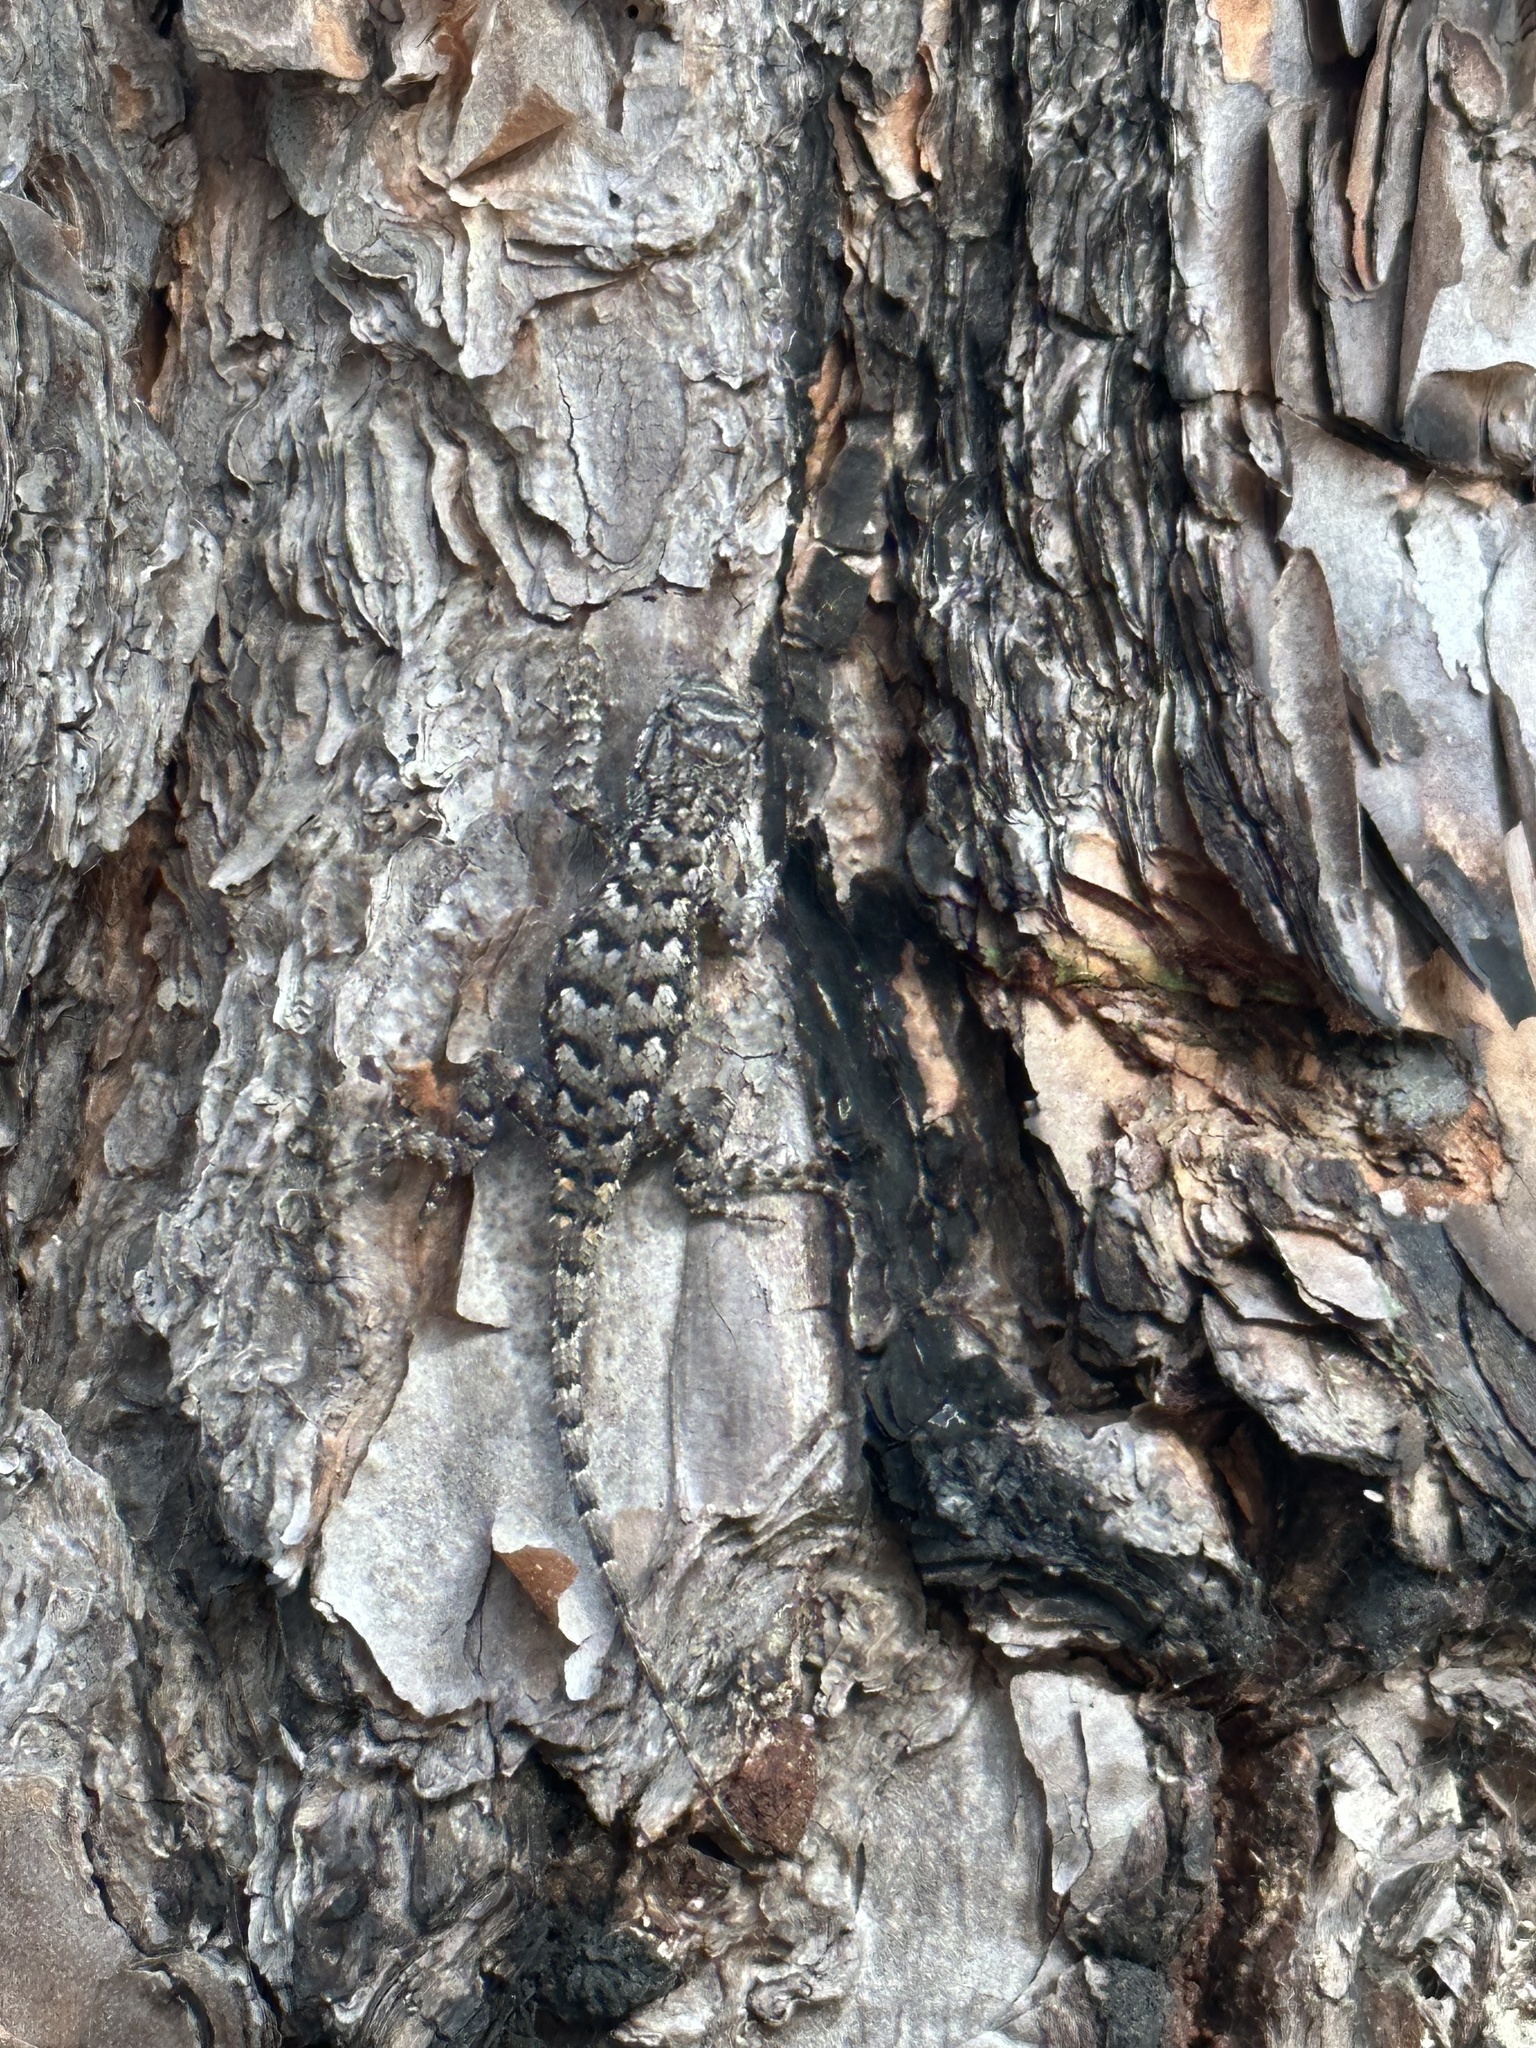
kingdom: Animalia
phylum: Chordata
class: Squamata
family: Phrynosomatidae
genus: Sceloporus
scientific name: Sceloporus undulatus
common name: Eastern fence lizard
